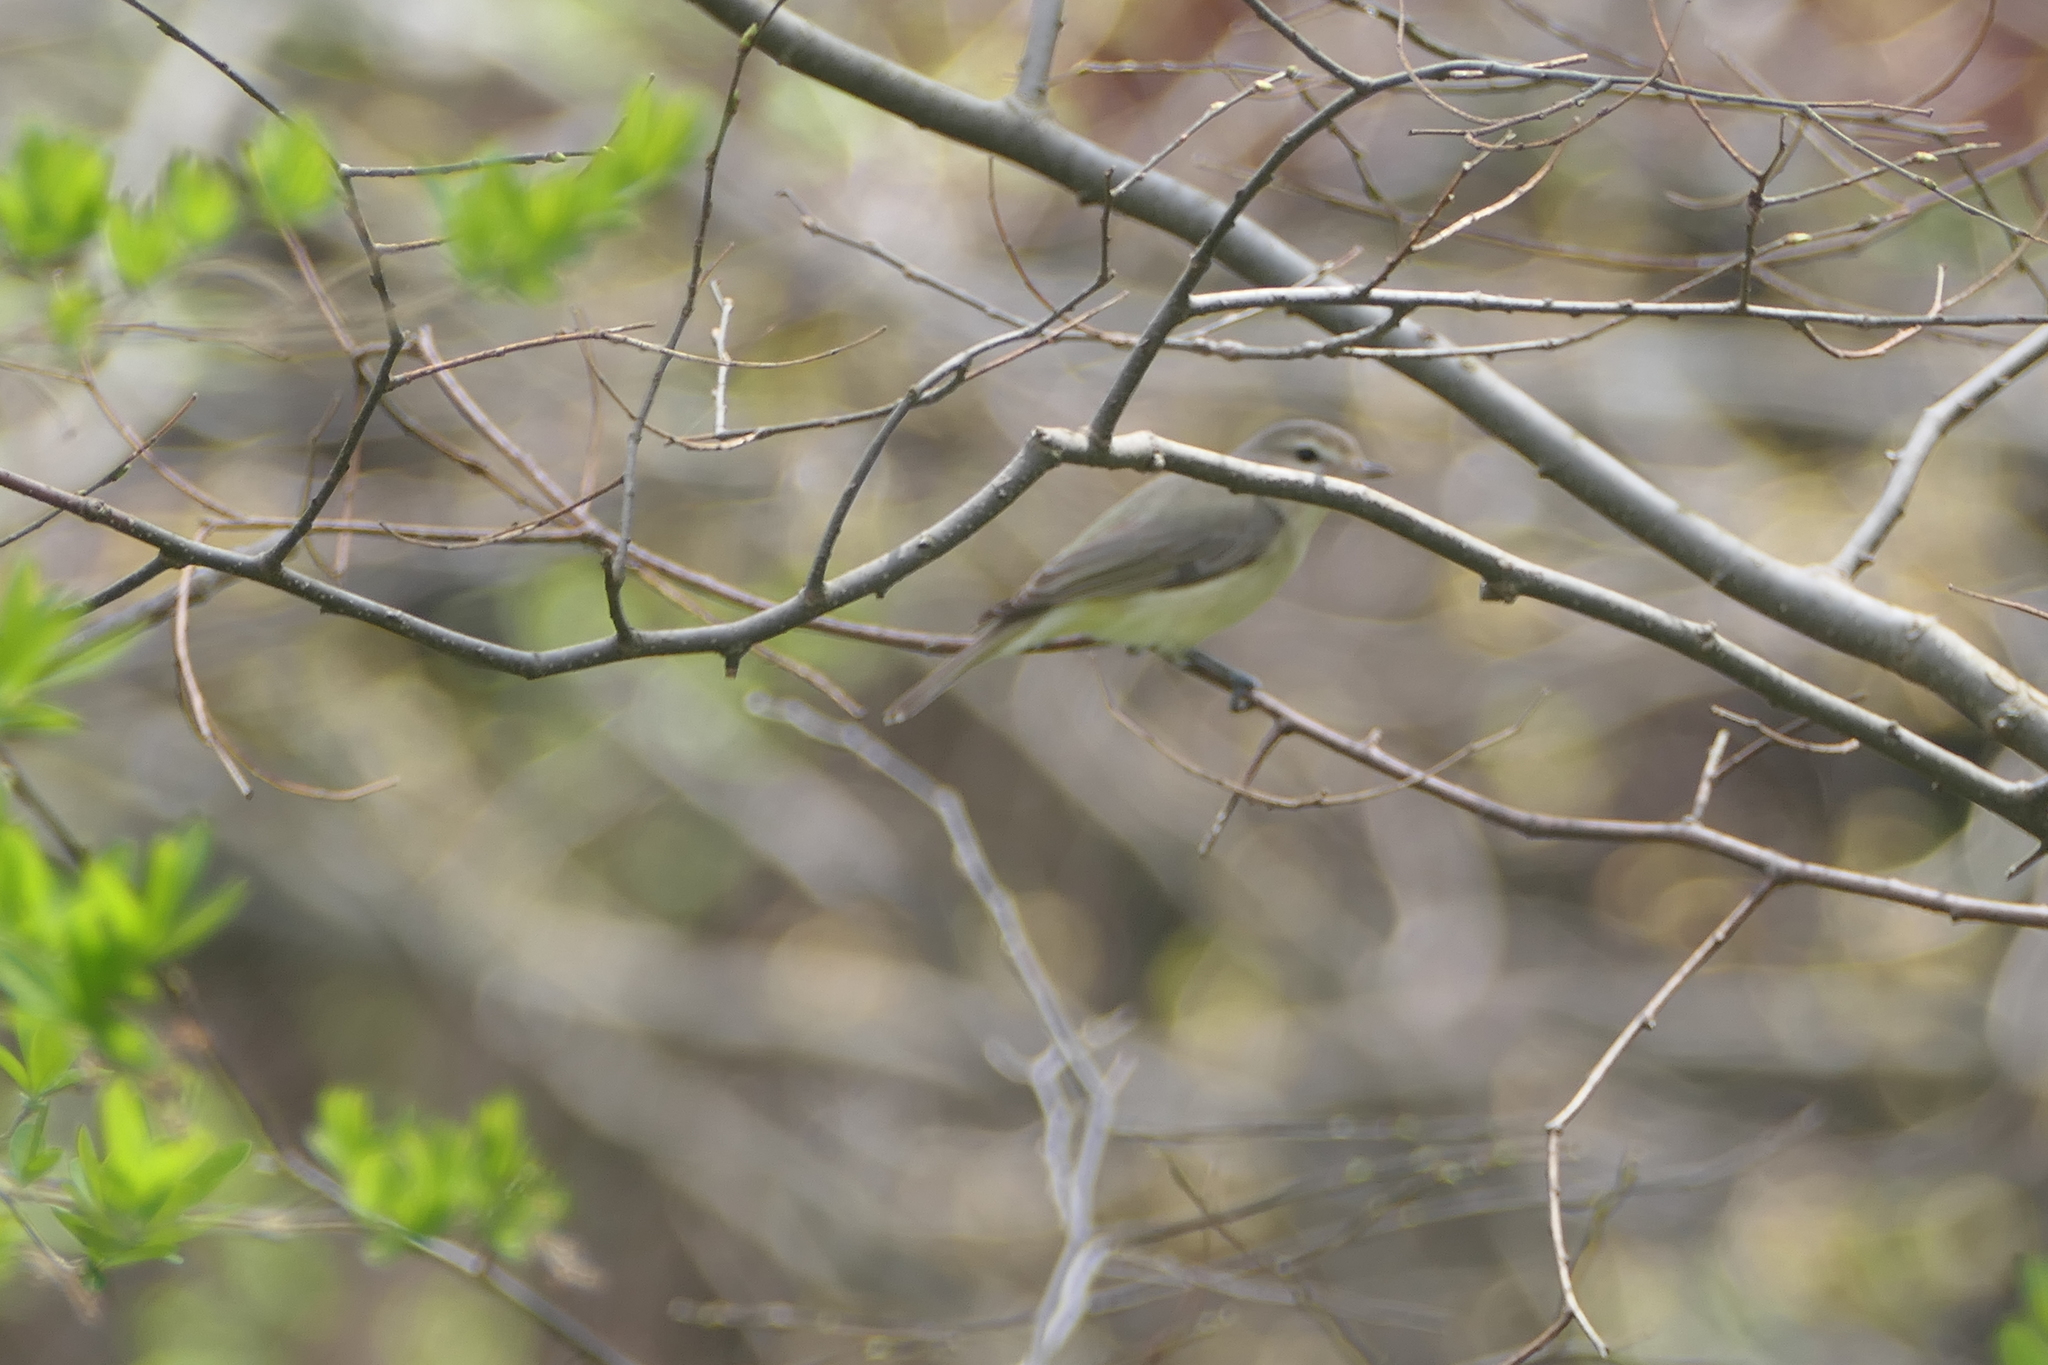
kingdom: Animalia
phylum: Chordata
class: Aves
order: Passeriformes
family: Vireonidae
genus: Vireo
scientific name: Vireo gilvus
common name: Warbling vireo
